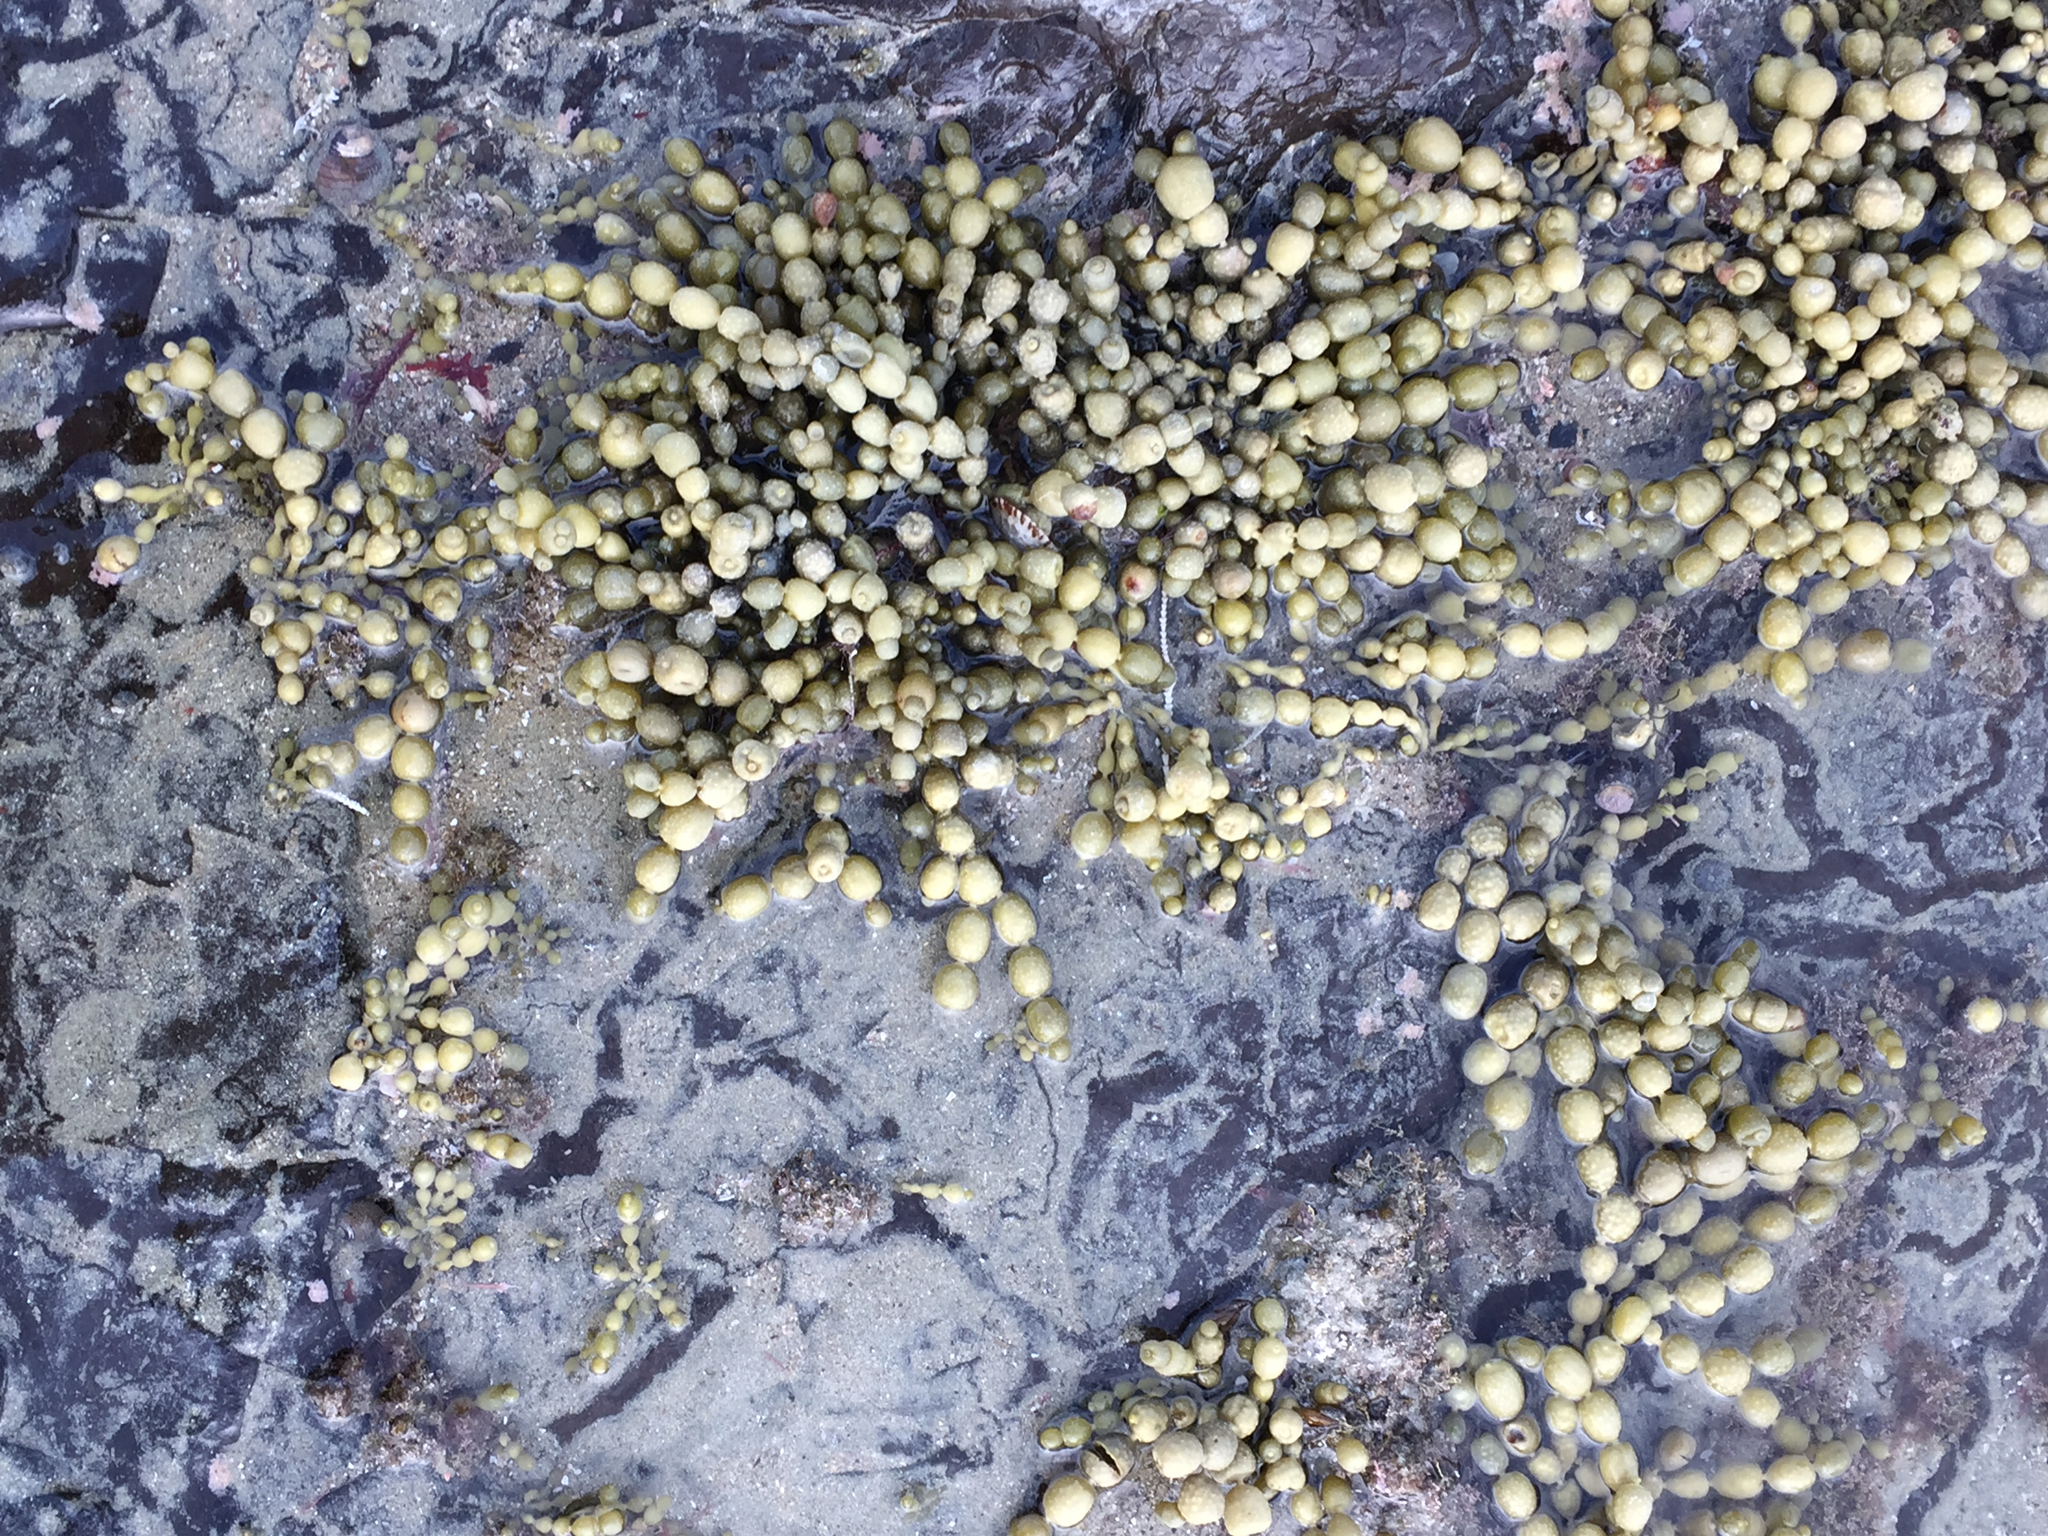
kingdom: Chromista
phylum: Ochrophyta
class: Phaeophyceae
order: Fucales
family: Hormosiraceae
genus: Hormosira
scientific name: Hormosira banksii
